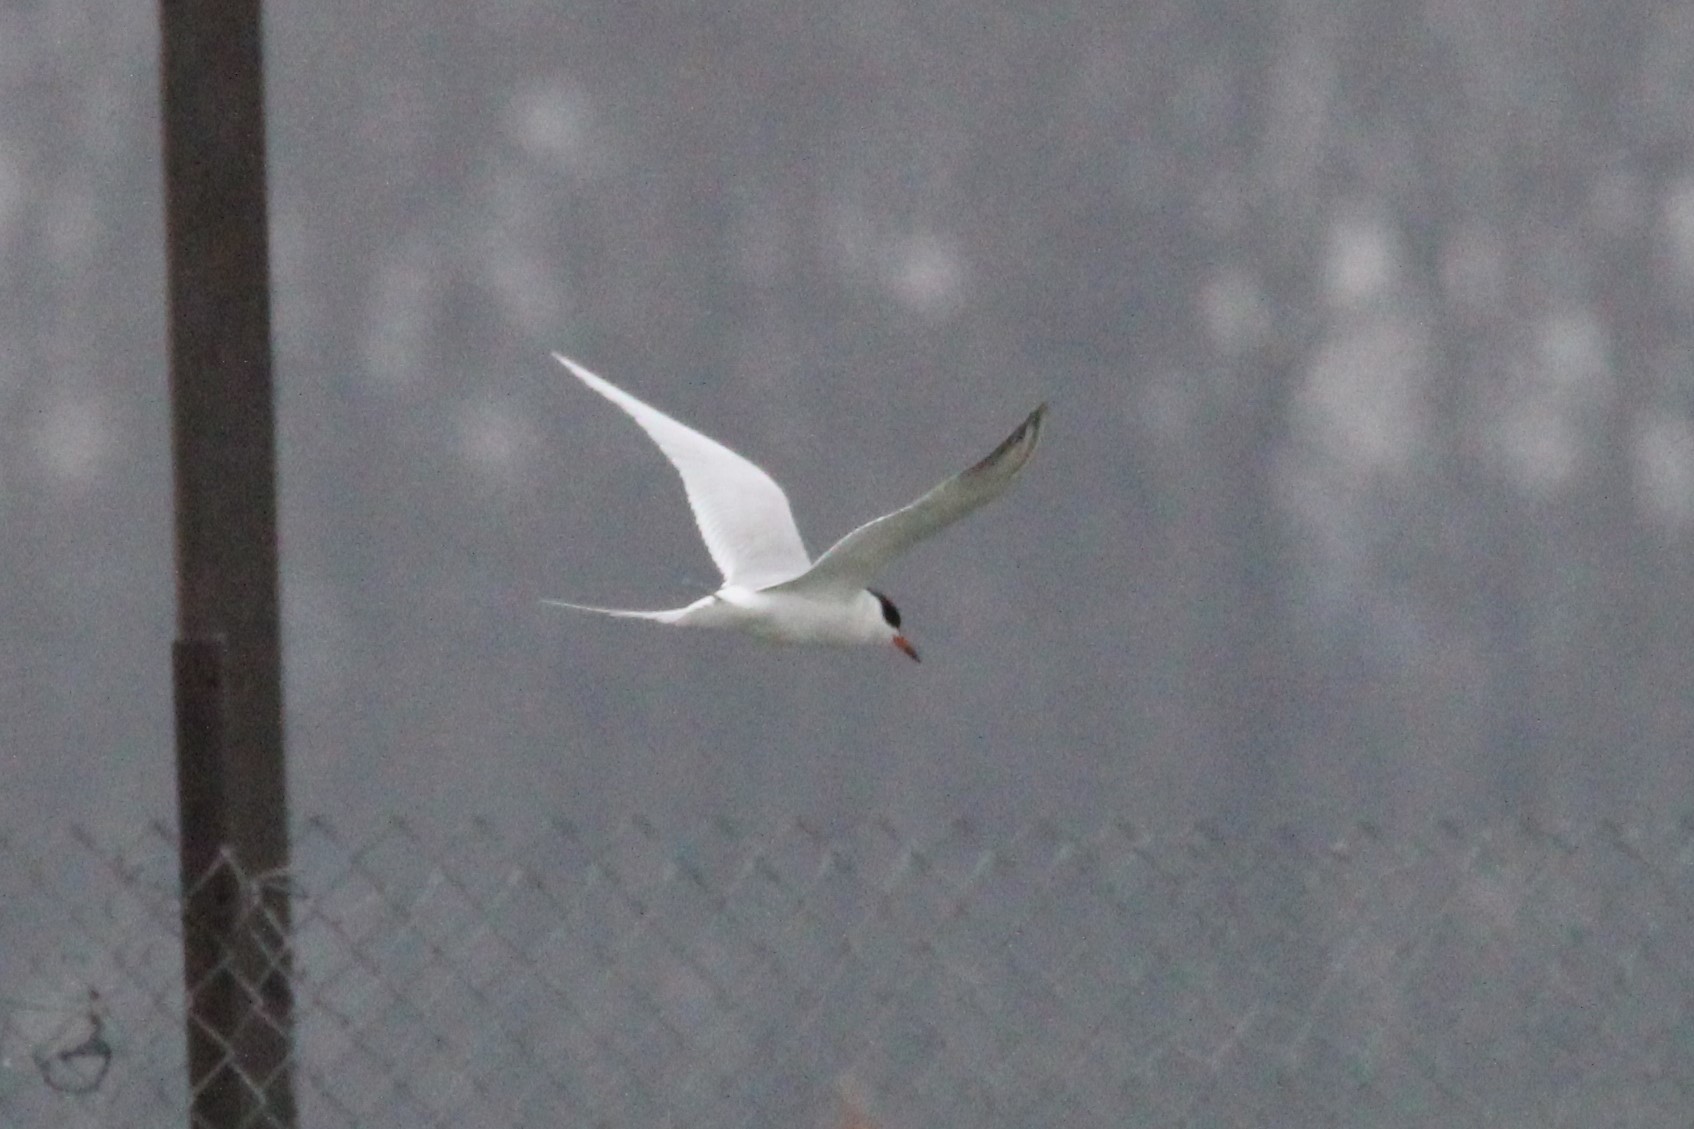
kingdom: Animalia
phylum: Chordata
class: Aves
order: Charadriiformes
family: Laridae
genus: Sterna
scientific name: Sterna forsteri
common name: Forster's tern
